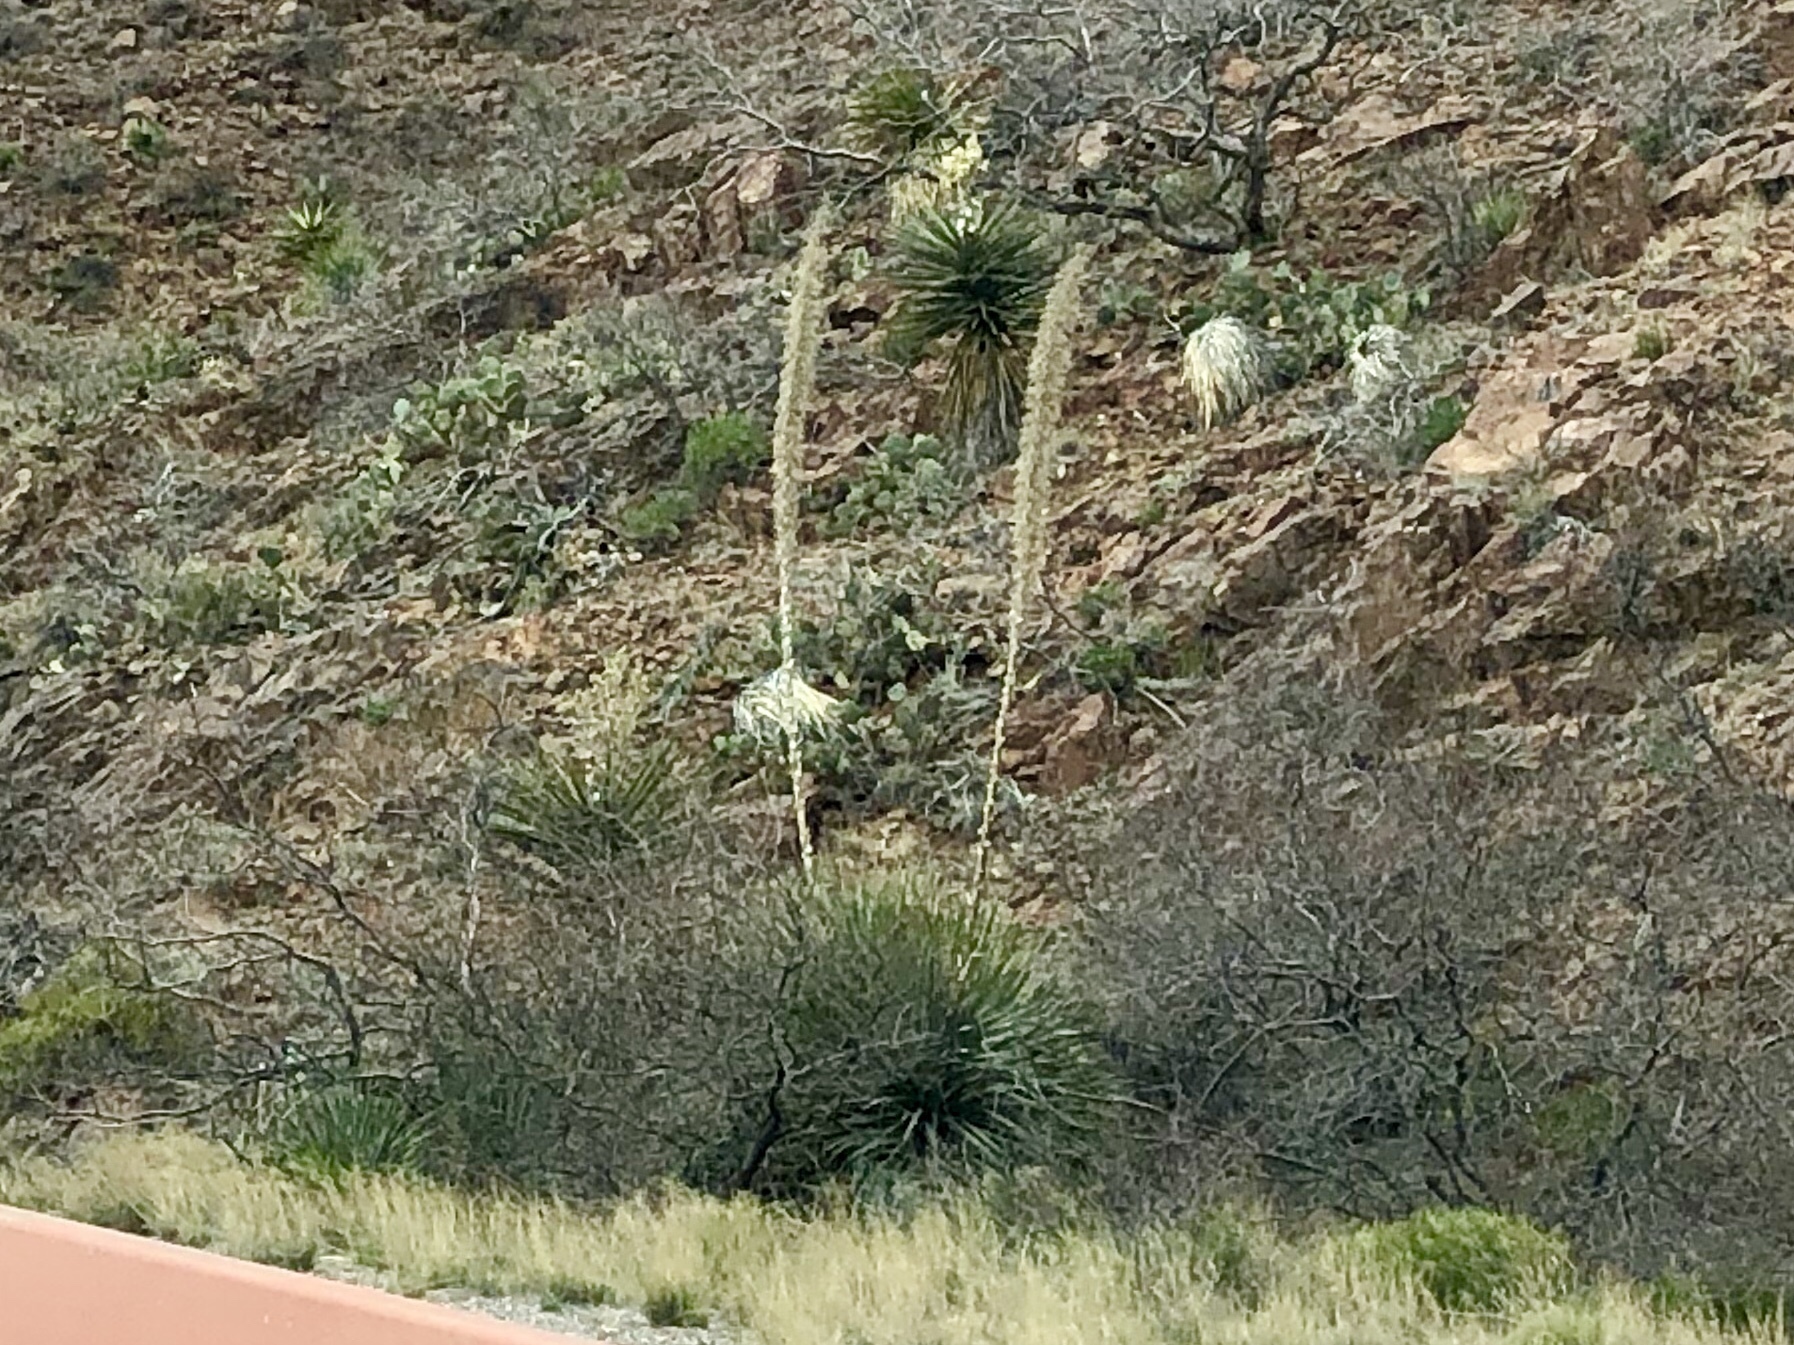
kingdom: Plantae
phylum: Tracheophyta
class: Liliopsida
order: Asparagales
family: Asparagaceae
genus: Dasylirion
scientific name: Dasylirion wheeleri
